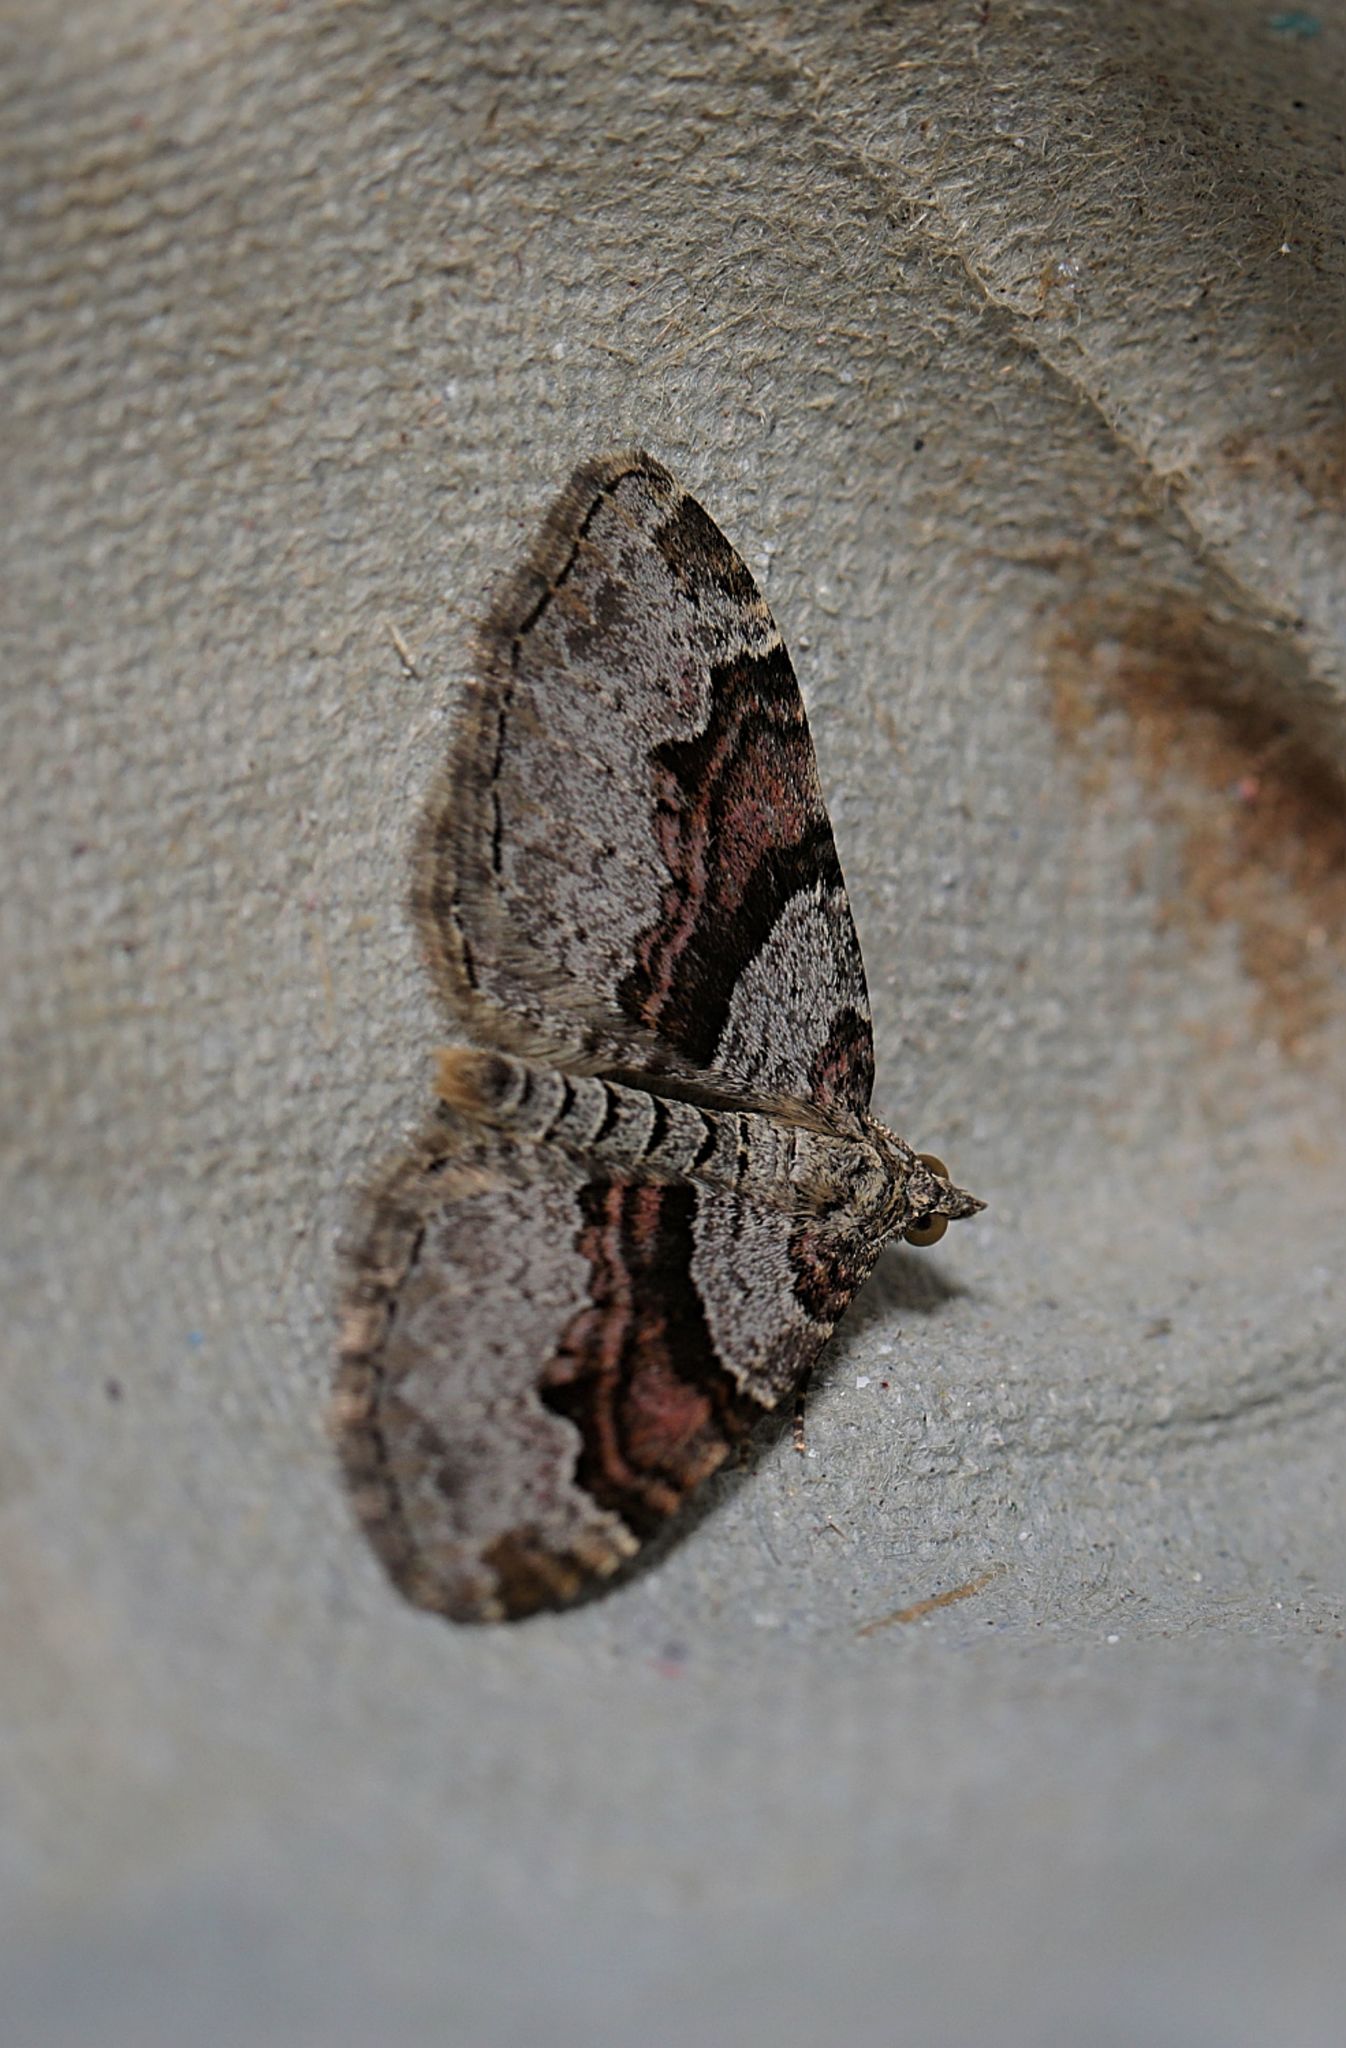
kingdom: Animalia
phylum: Arthropoda
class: Insecta
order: Lepidoptera
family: Geometridae
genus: Xanthorhoe
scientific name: Xanthorhoe designata
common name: Flame carpet
